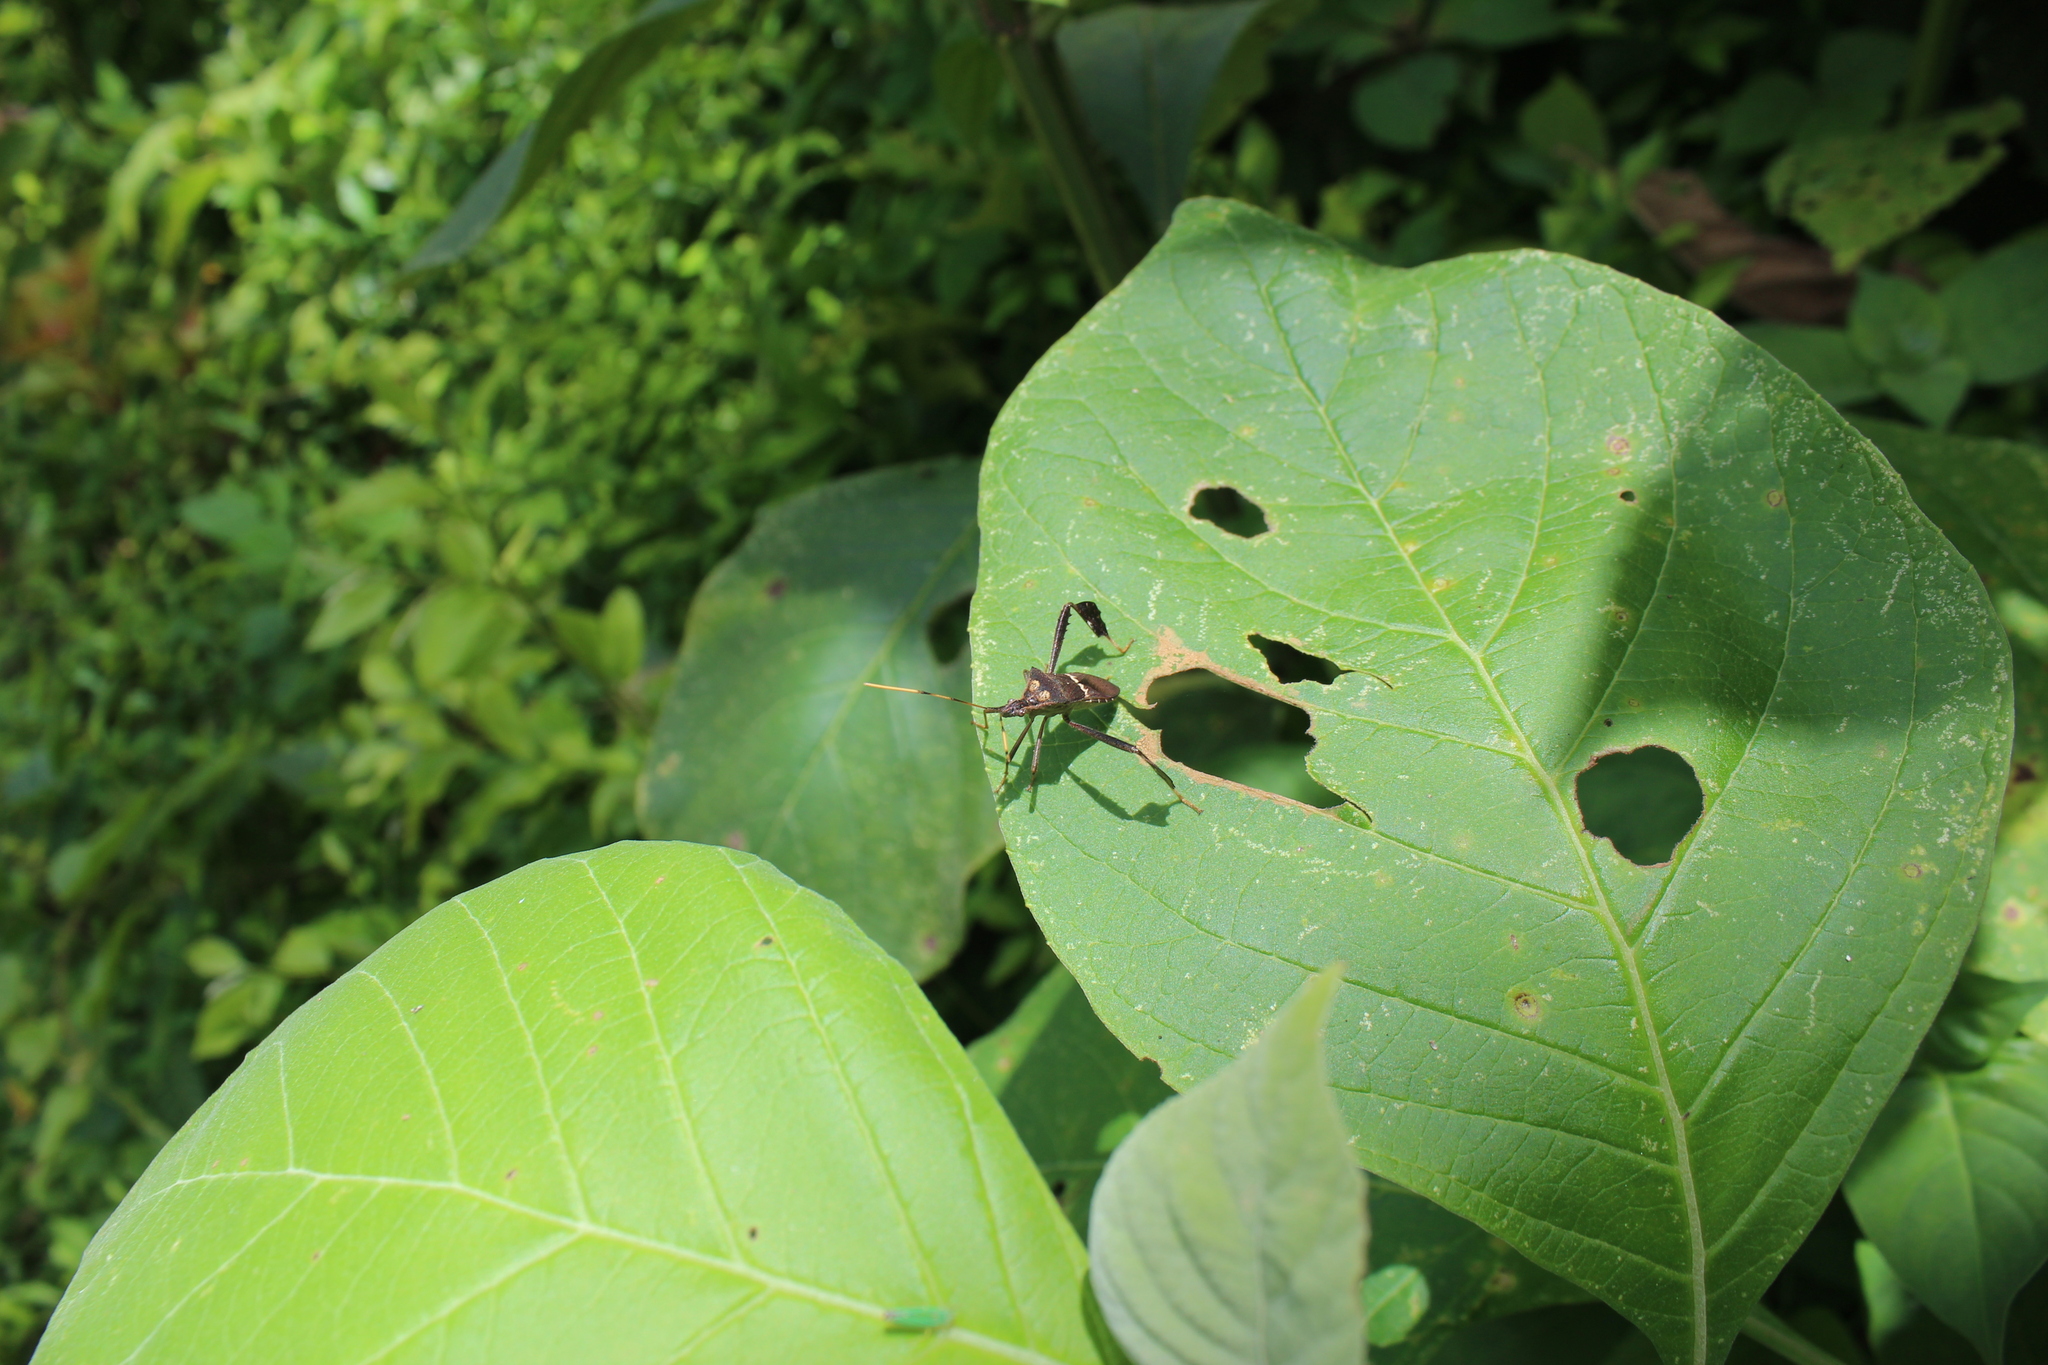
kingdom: Animalia
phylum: Arthropoda
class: Insecta
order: Hemiptera
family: Coreidae
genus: Leptoglossus
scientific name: Leptoglossus zonatus
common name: Large-legged bug
